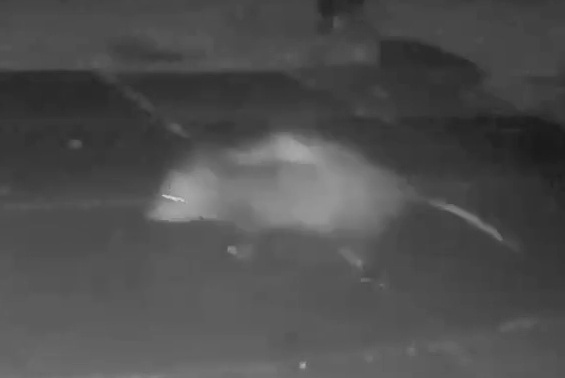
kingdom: Animalia
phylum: Chordata
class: Mammalia
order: Didelphimorphia
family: Didelphidae
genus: Didelphis
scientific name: Didelphis virginiana
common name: Virginia opossum
